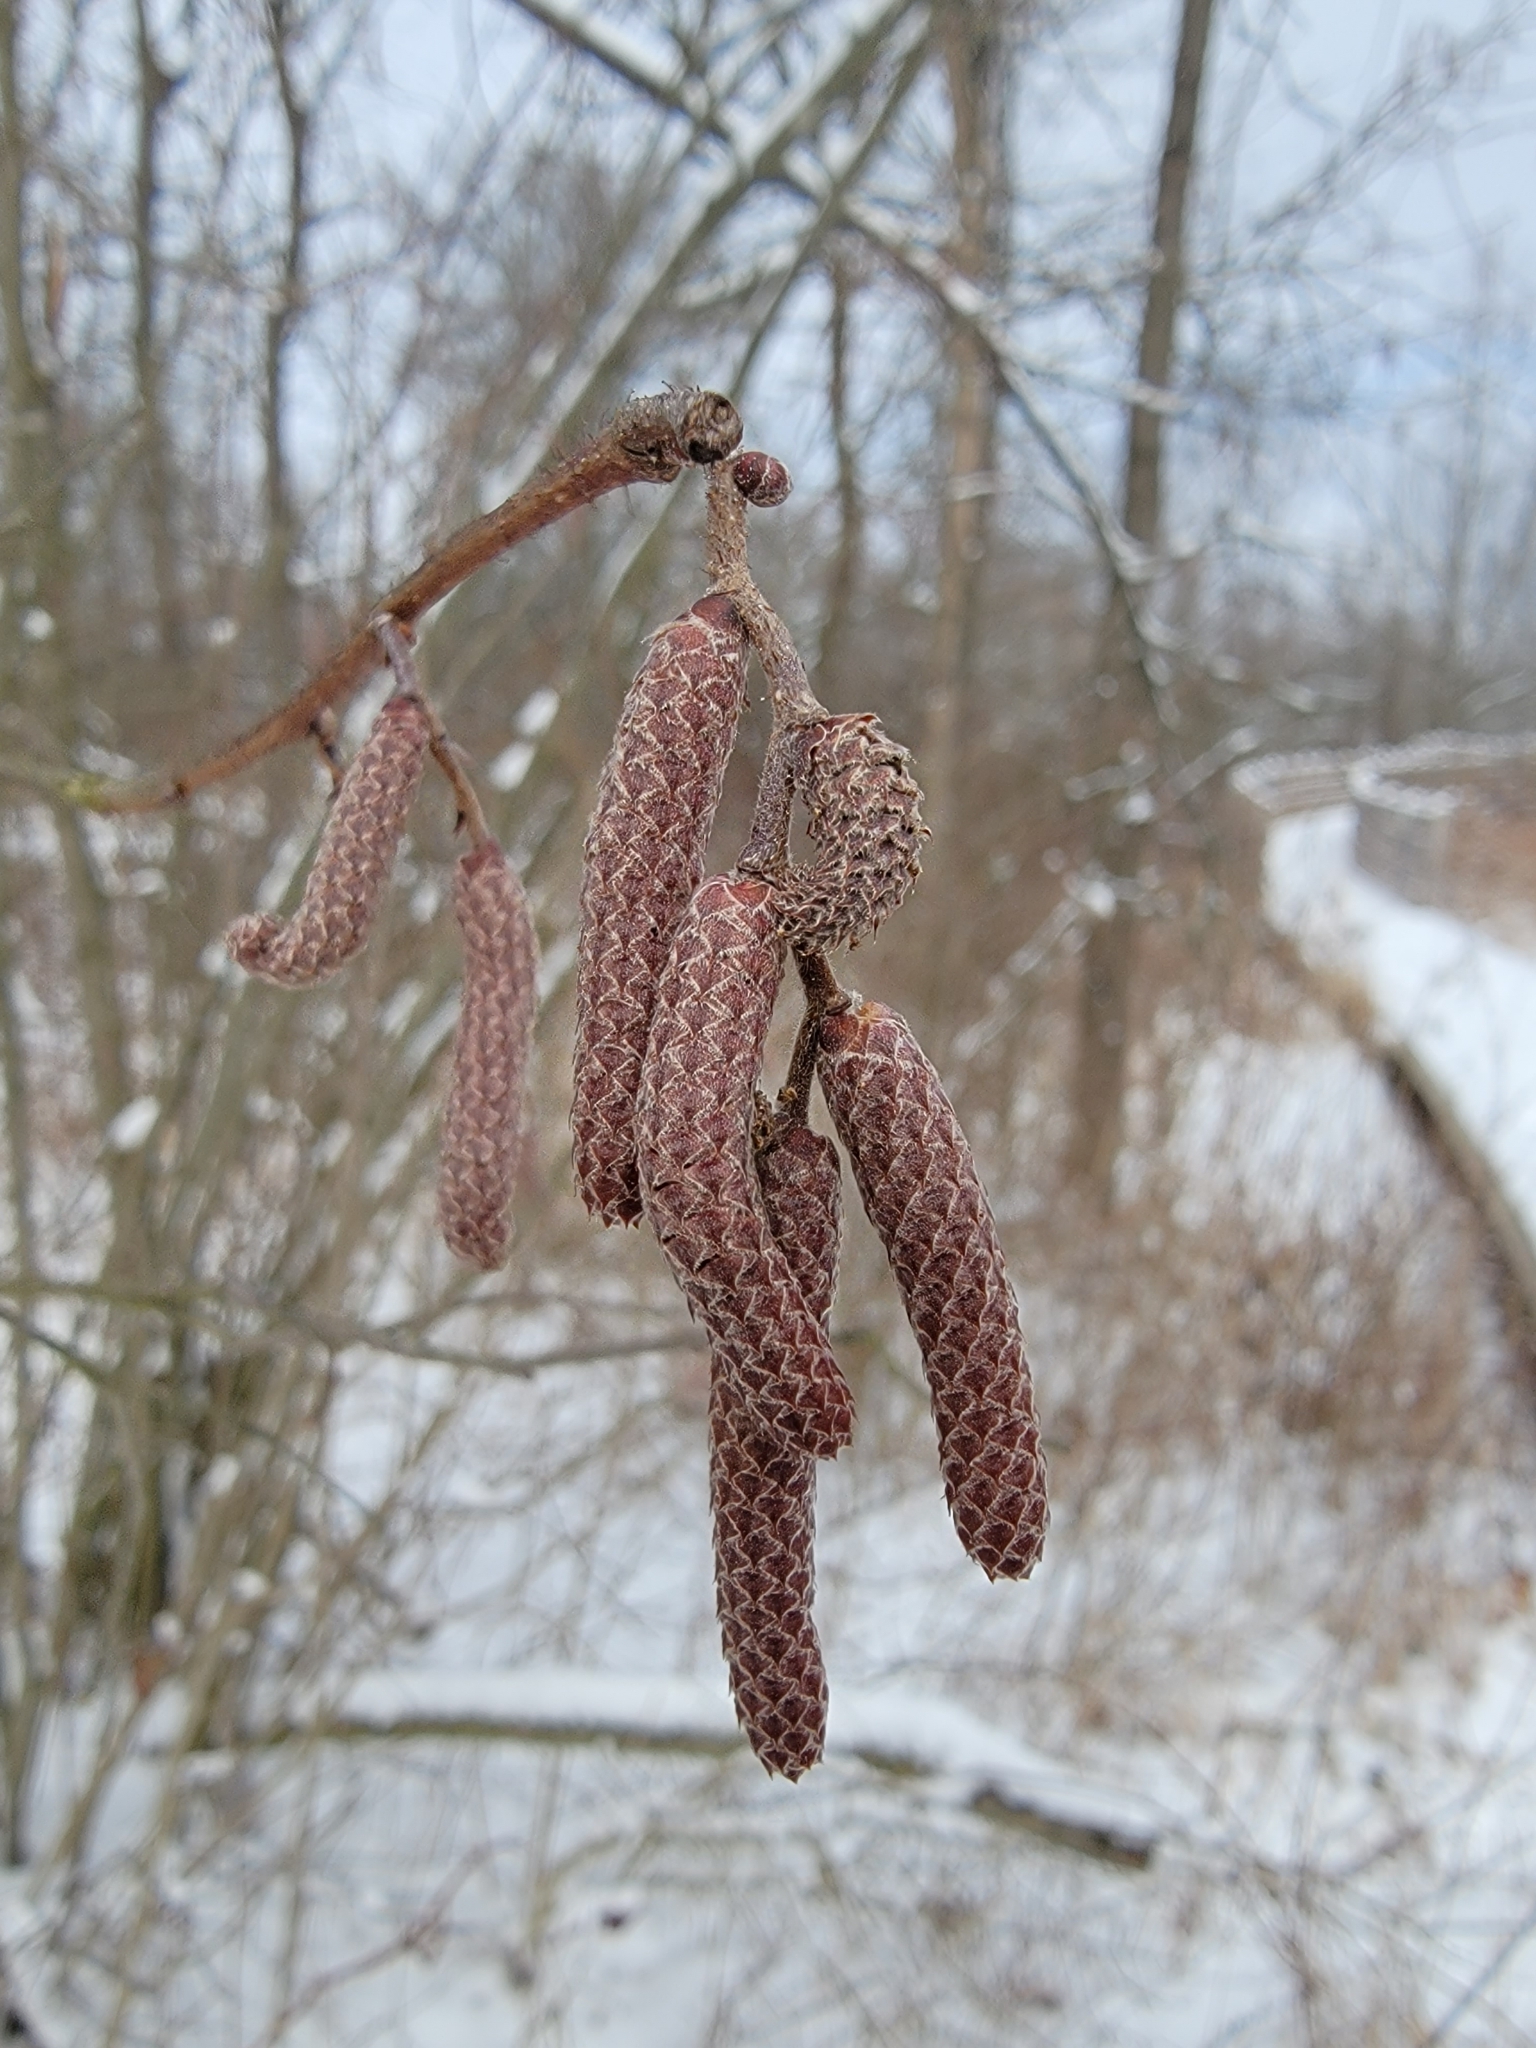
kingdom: Plantae
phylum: Tracheophyta
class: Magnoliopsida
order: Fagales
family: Betulaceae
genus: Alnus
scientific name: Alnus incana
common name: Grey alder
